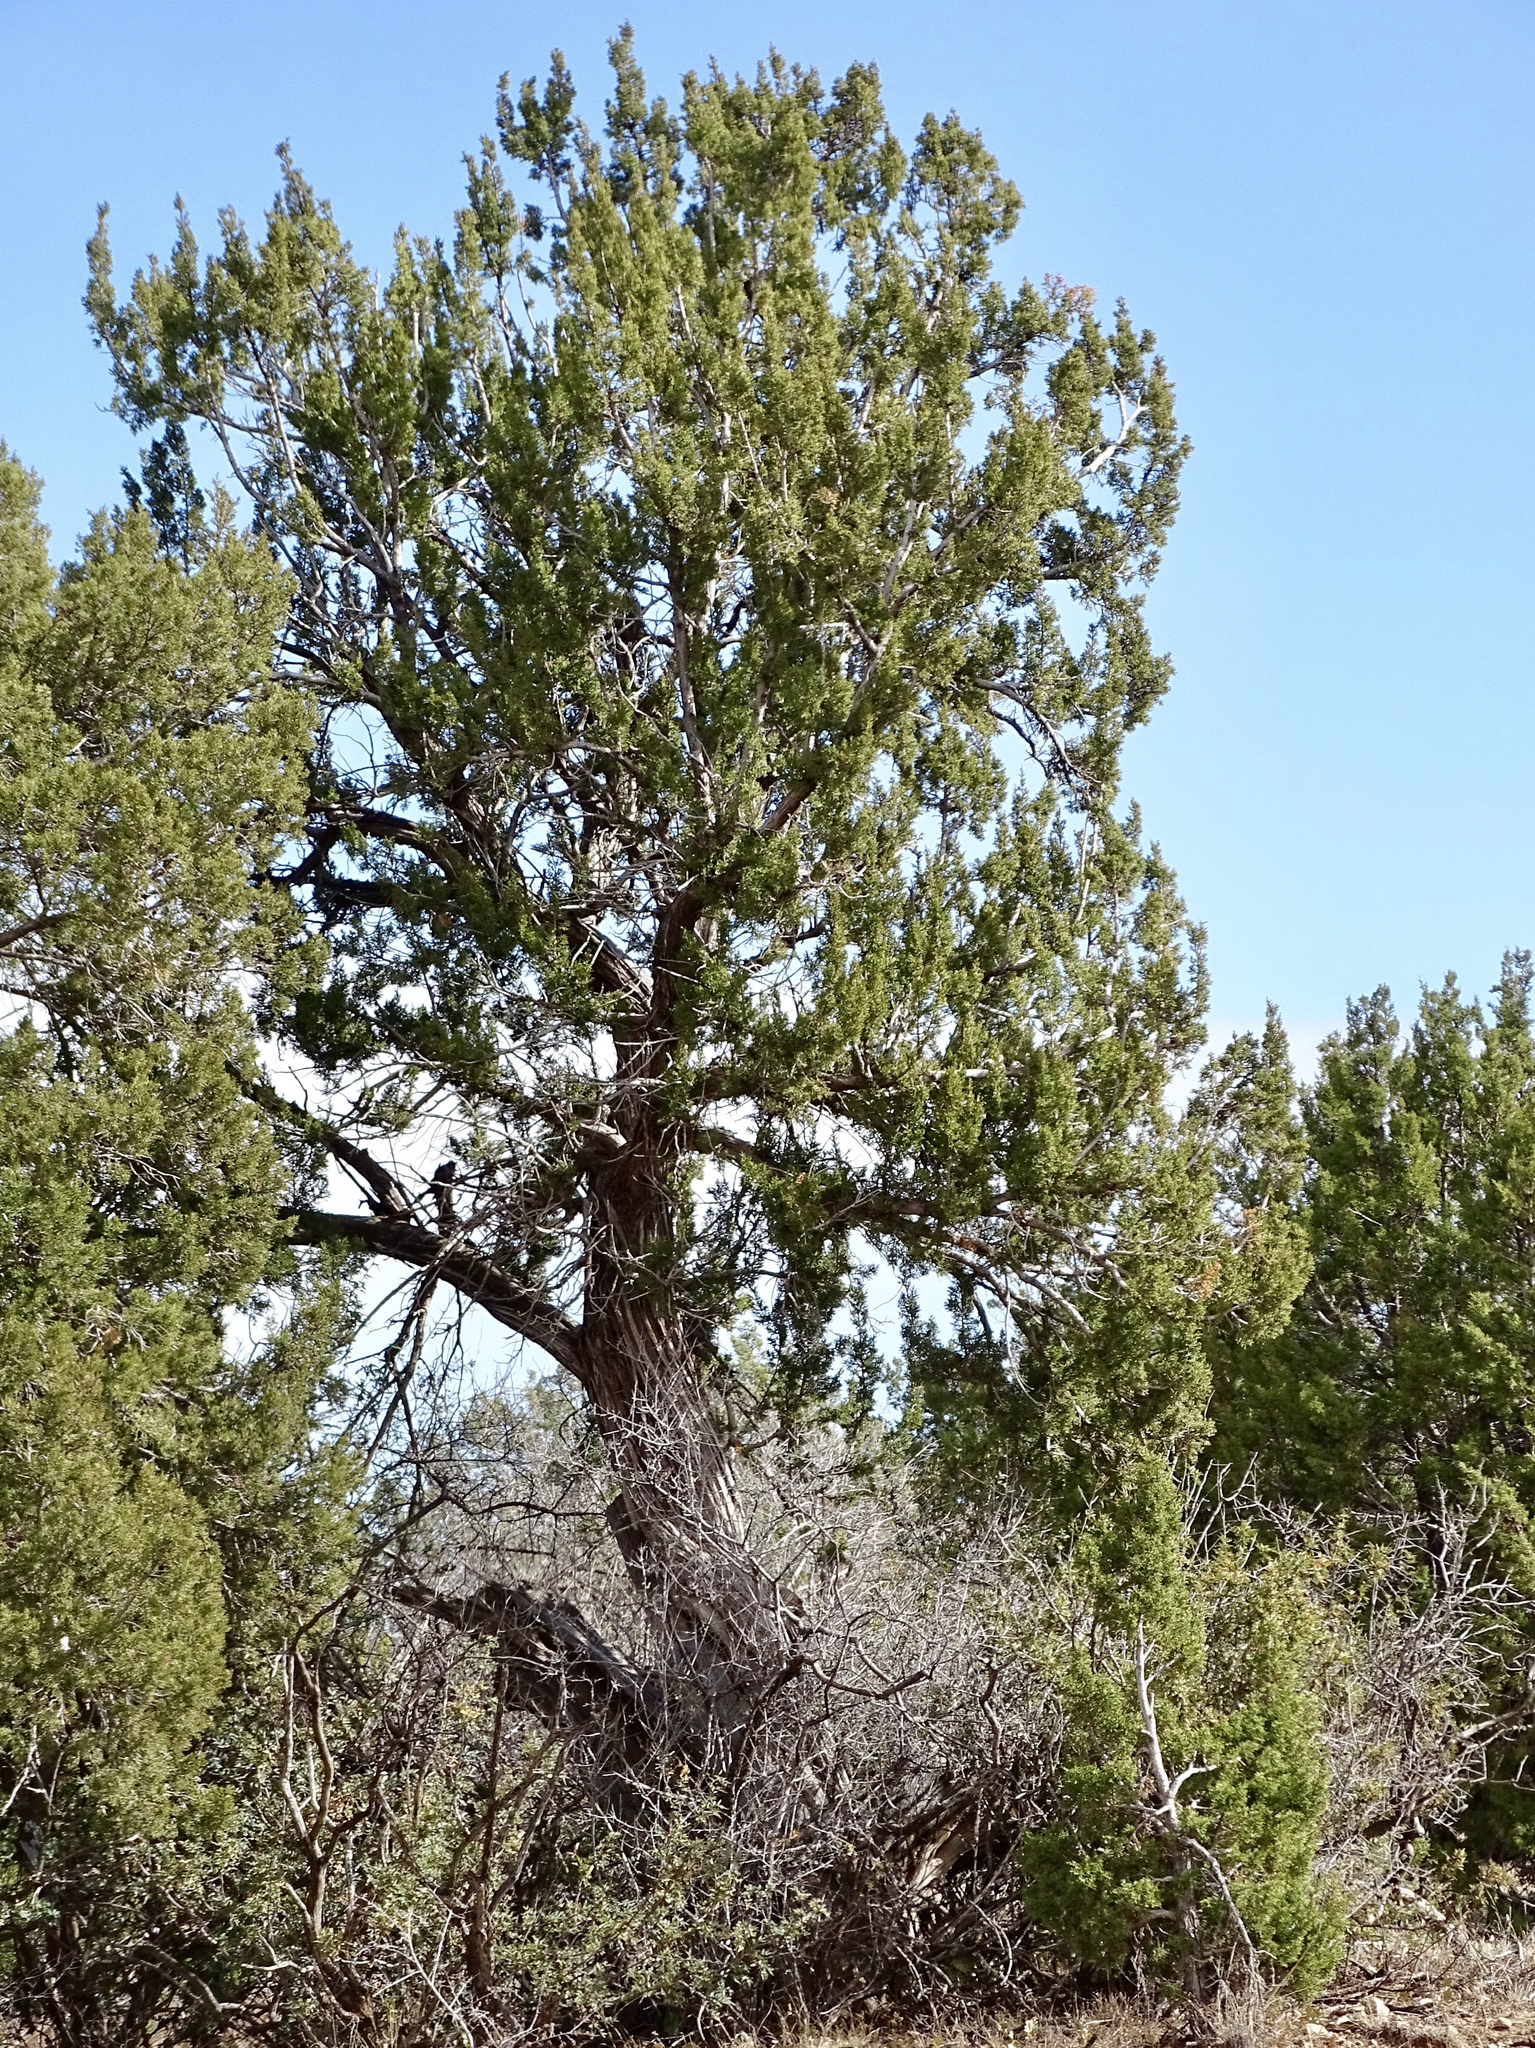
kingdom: Plantae
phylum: Tracheophyta
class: Pinopsida
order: Pinales
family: Cupressaceae
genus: Juniperus
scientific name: Juniperus monosperma
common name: One-seed juniper
